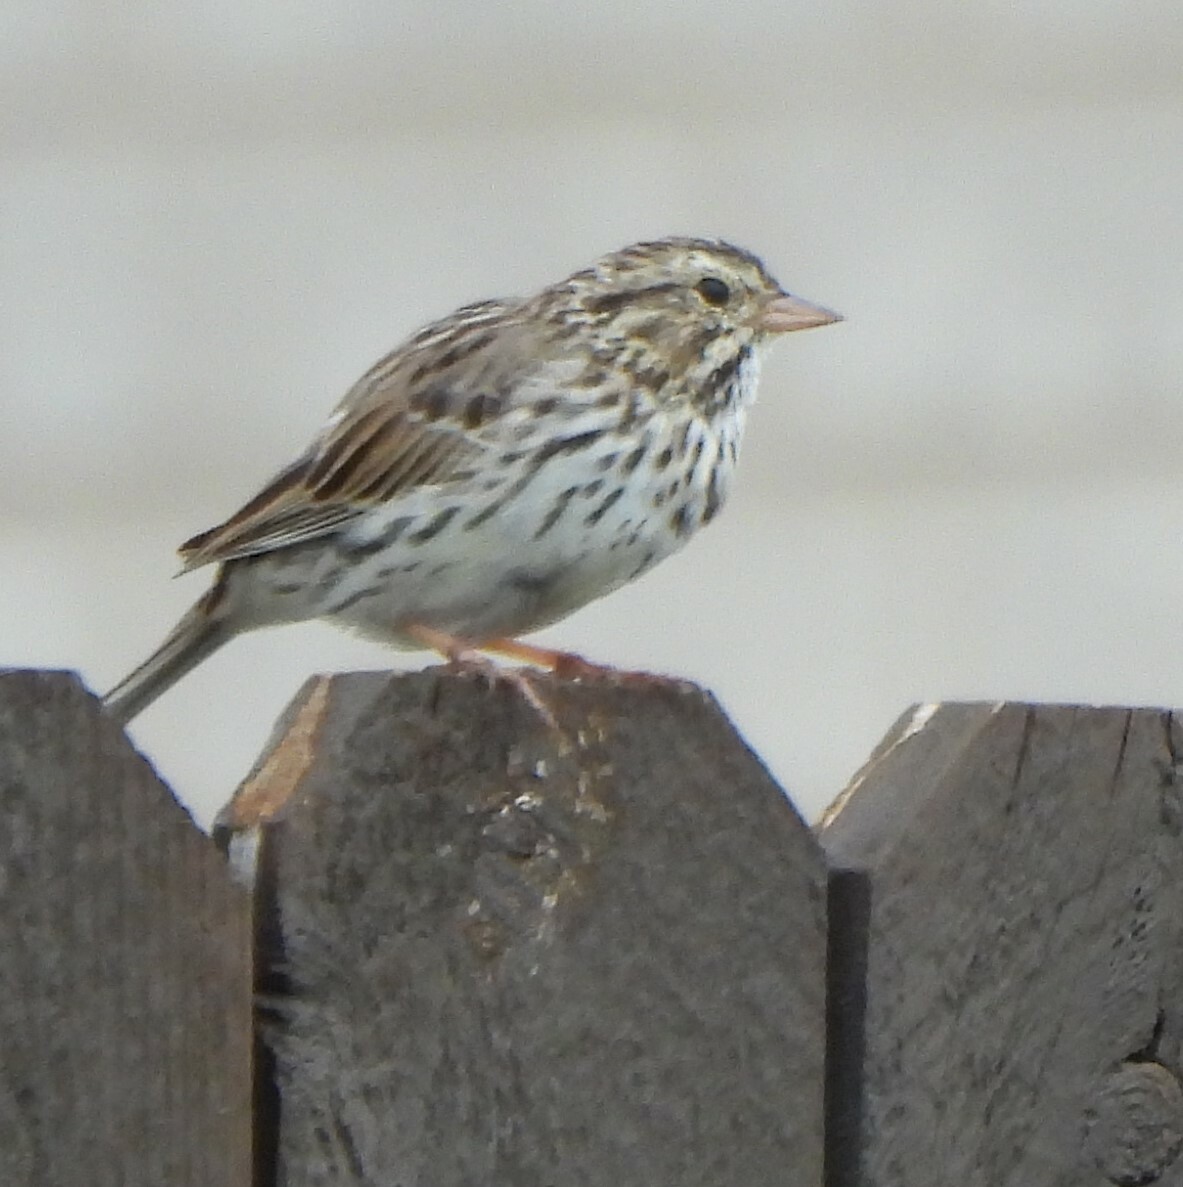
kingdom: Animalia
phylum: Chordata
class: Aves
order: Passeriformes
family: Passerellidae
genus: Passerculus
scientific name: Passerculus sandwichensis
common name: Savannah sparrow
